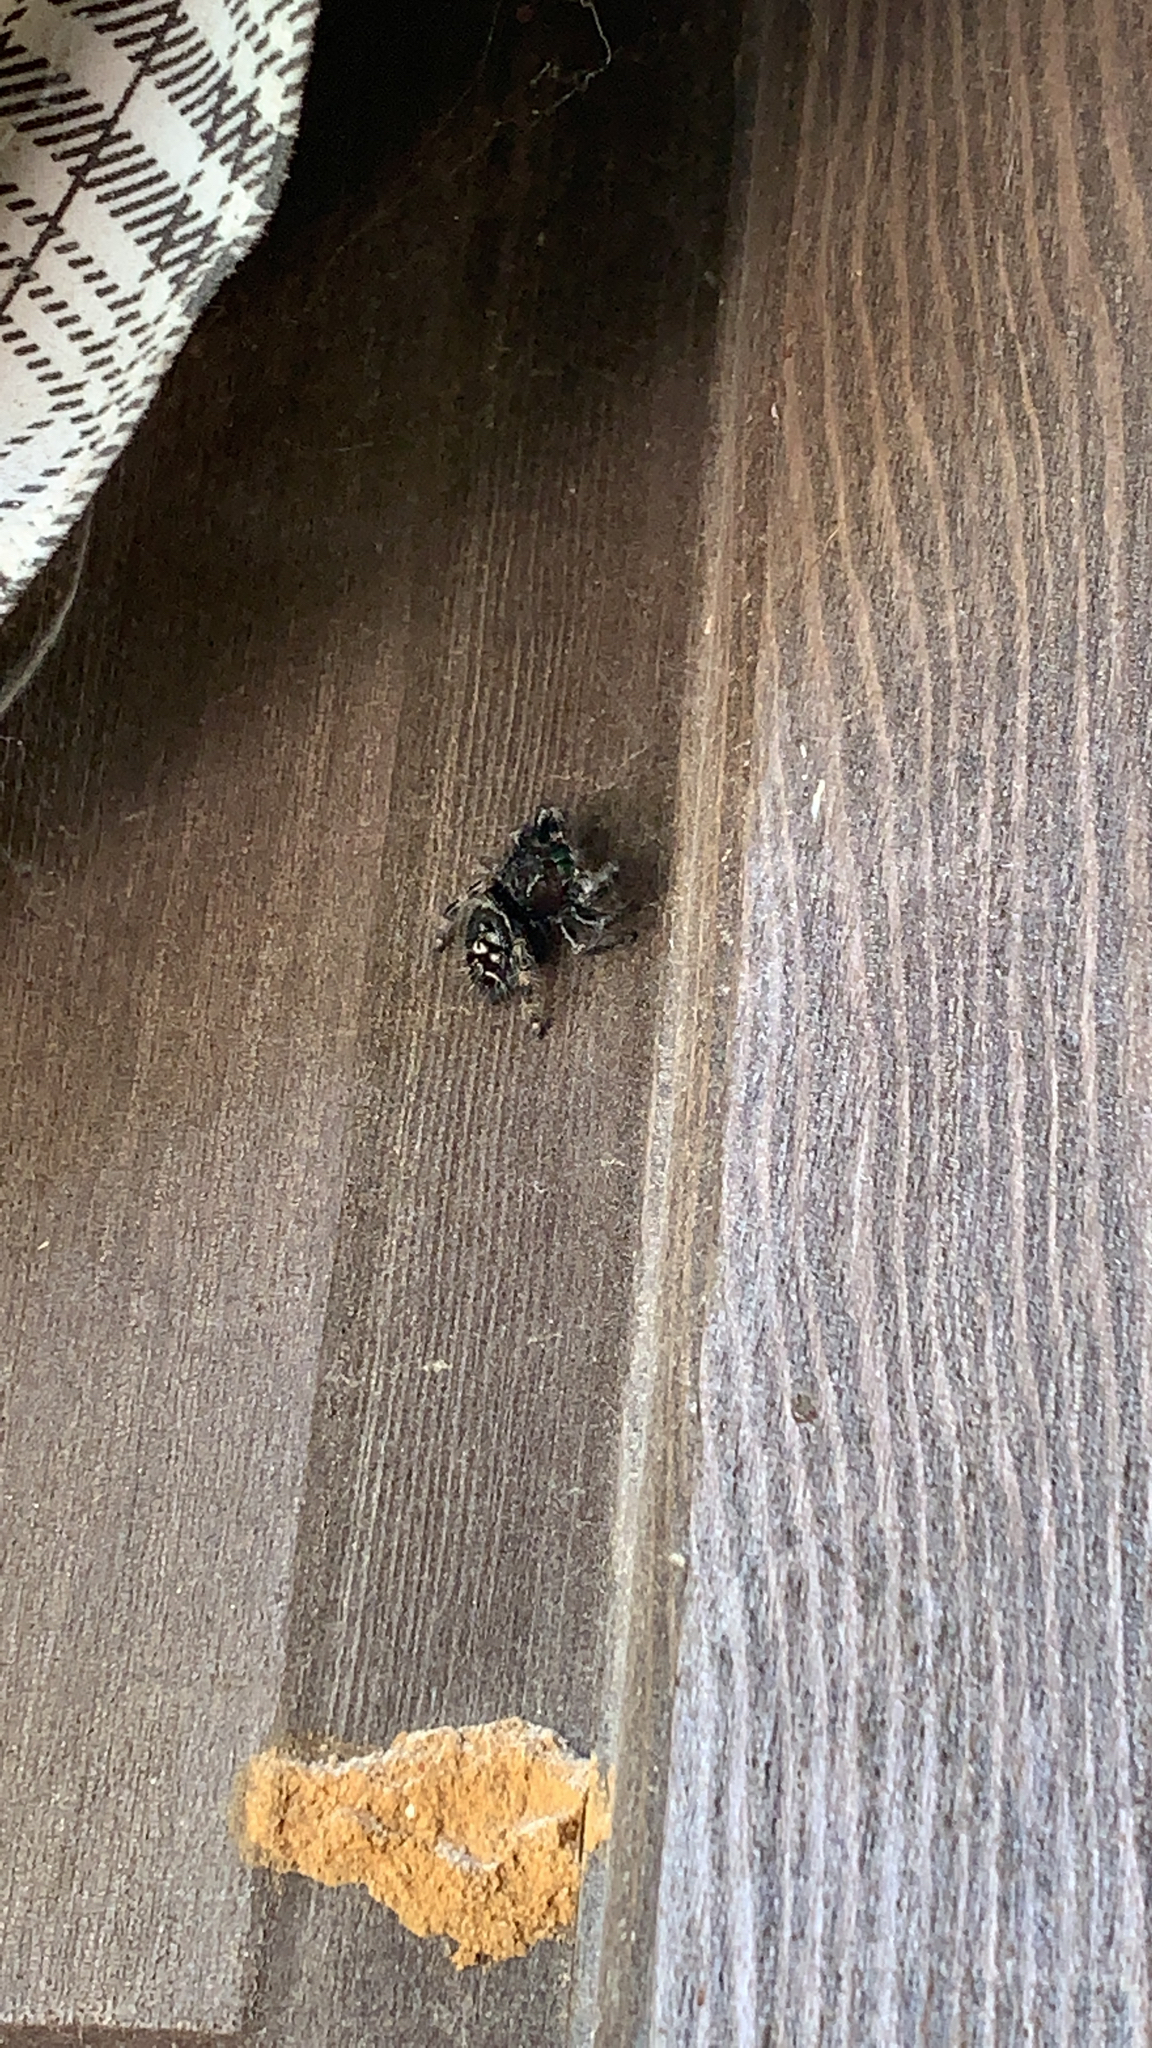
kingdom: Animalia
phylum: Arthropoda
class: Arachnida
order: Araneae
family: Salticidae
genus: Phidippus
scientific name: Phidippus audax
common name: Bold jumper
